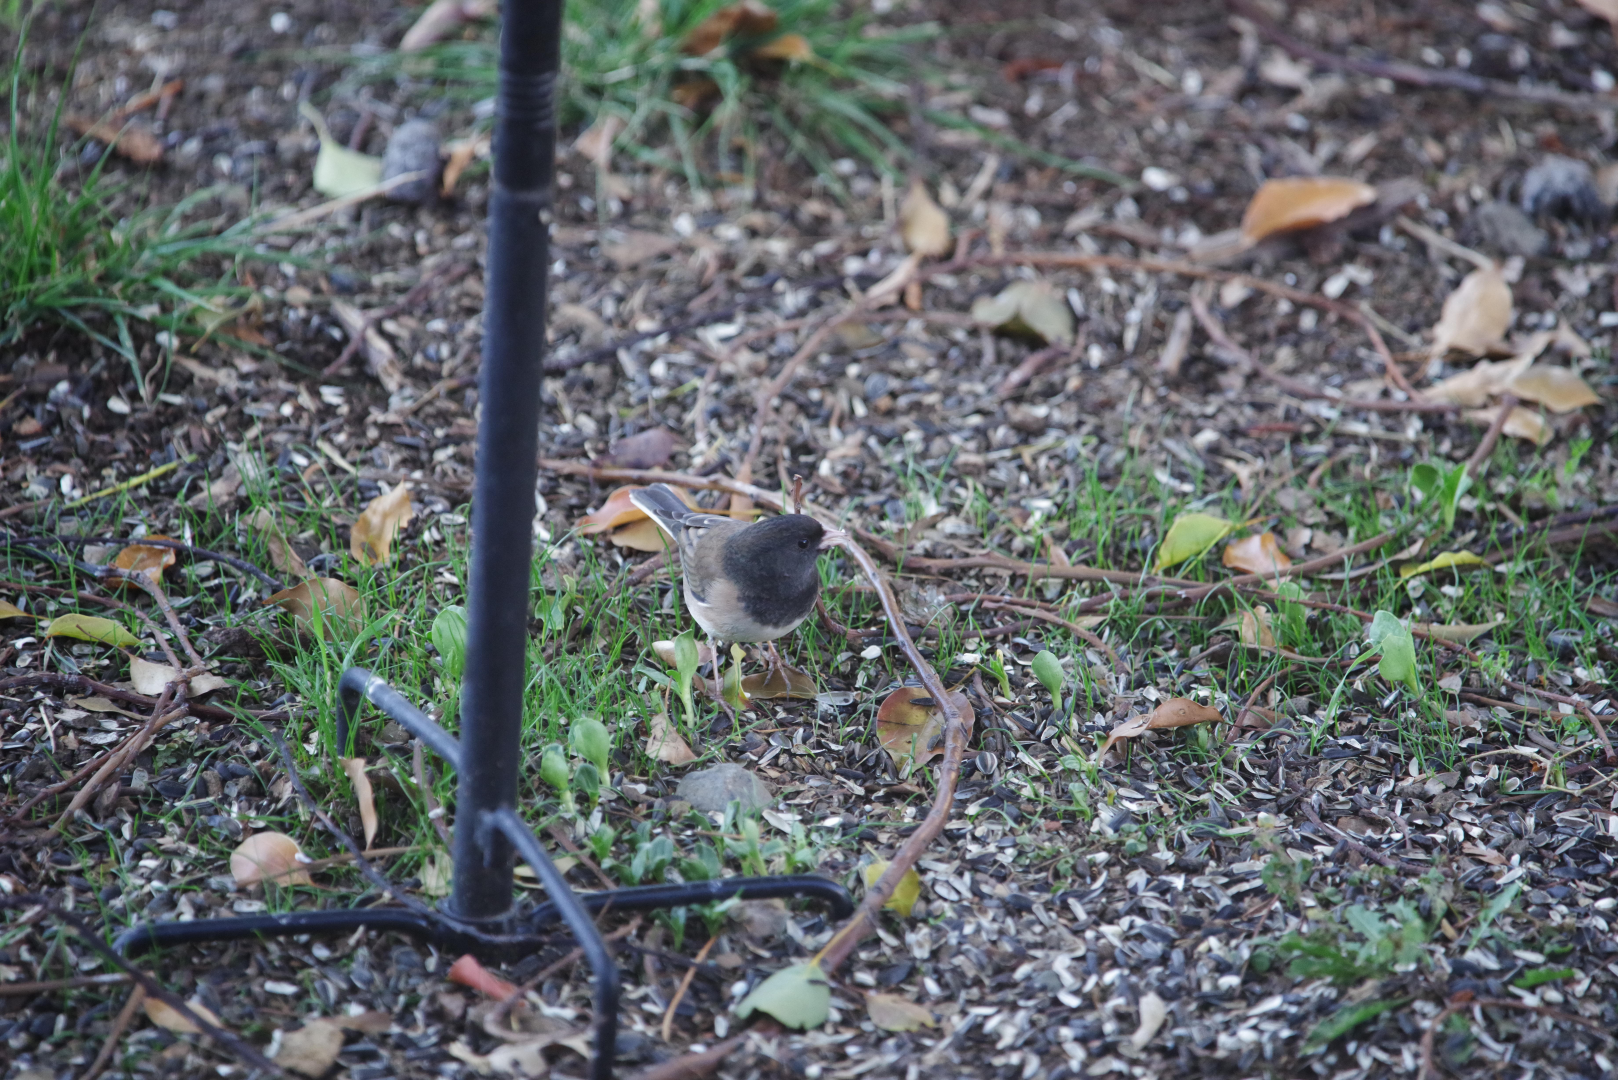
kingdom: Animalia
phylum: Chordata
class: Aves
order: Passeriformes
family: Passerellidae
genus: Junco
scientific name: Junco hyemalis
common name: Dark-eyed junco
